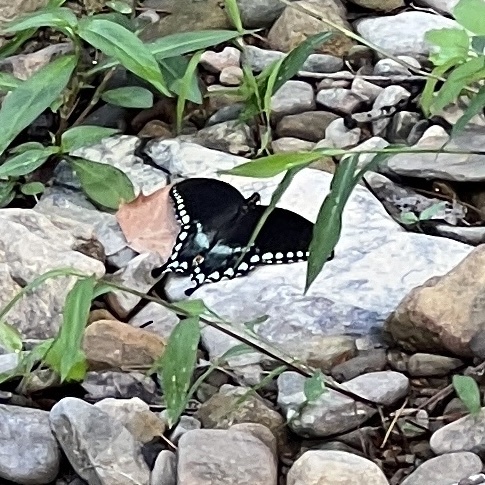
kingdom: Animalia
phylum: Arthropoda
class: Insecta
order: Lepidoptera
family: Papilionidae
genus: Papilio
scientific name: Papilio troilus
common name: Spicebush swallowtail
